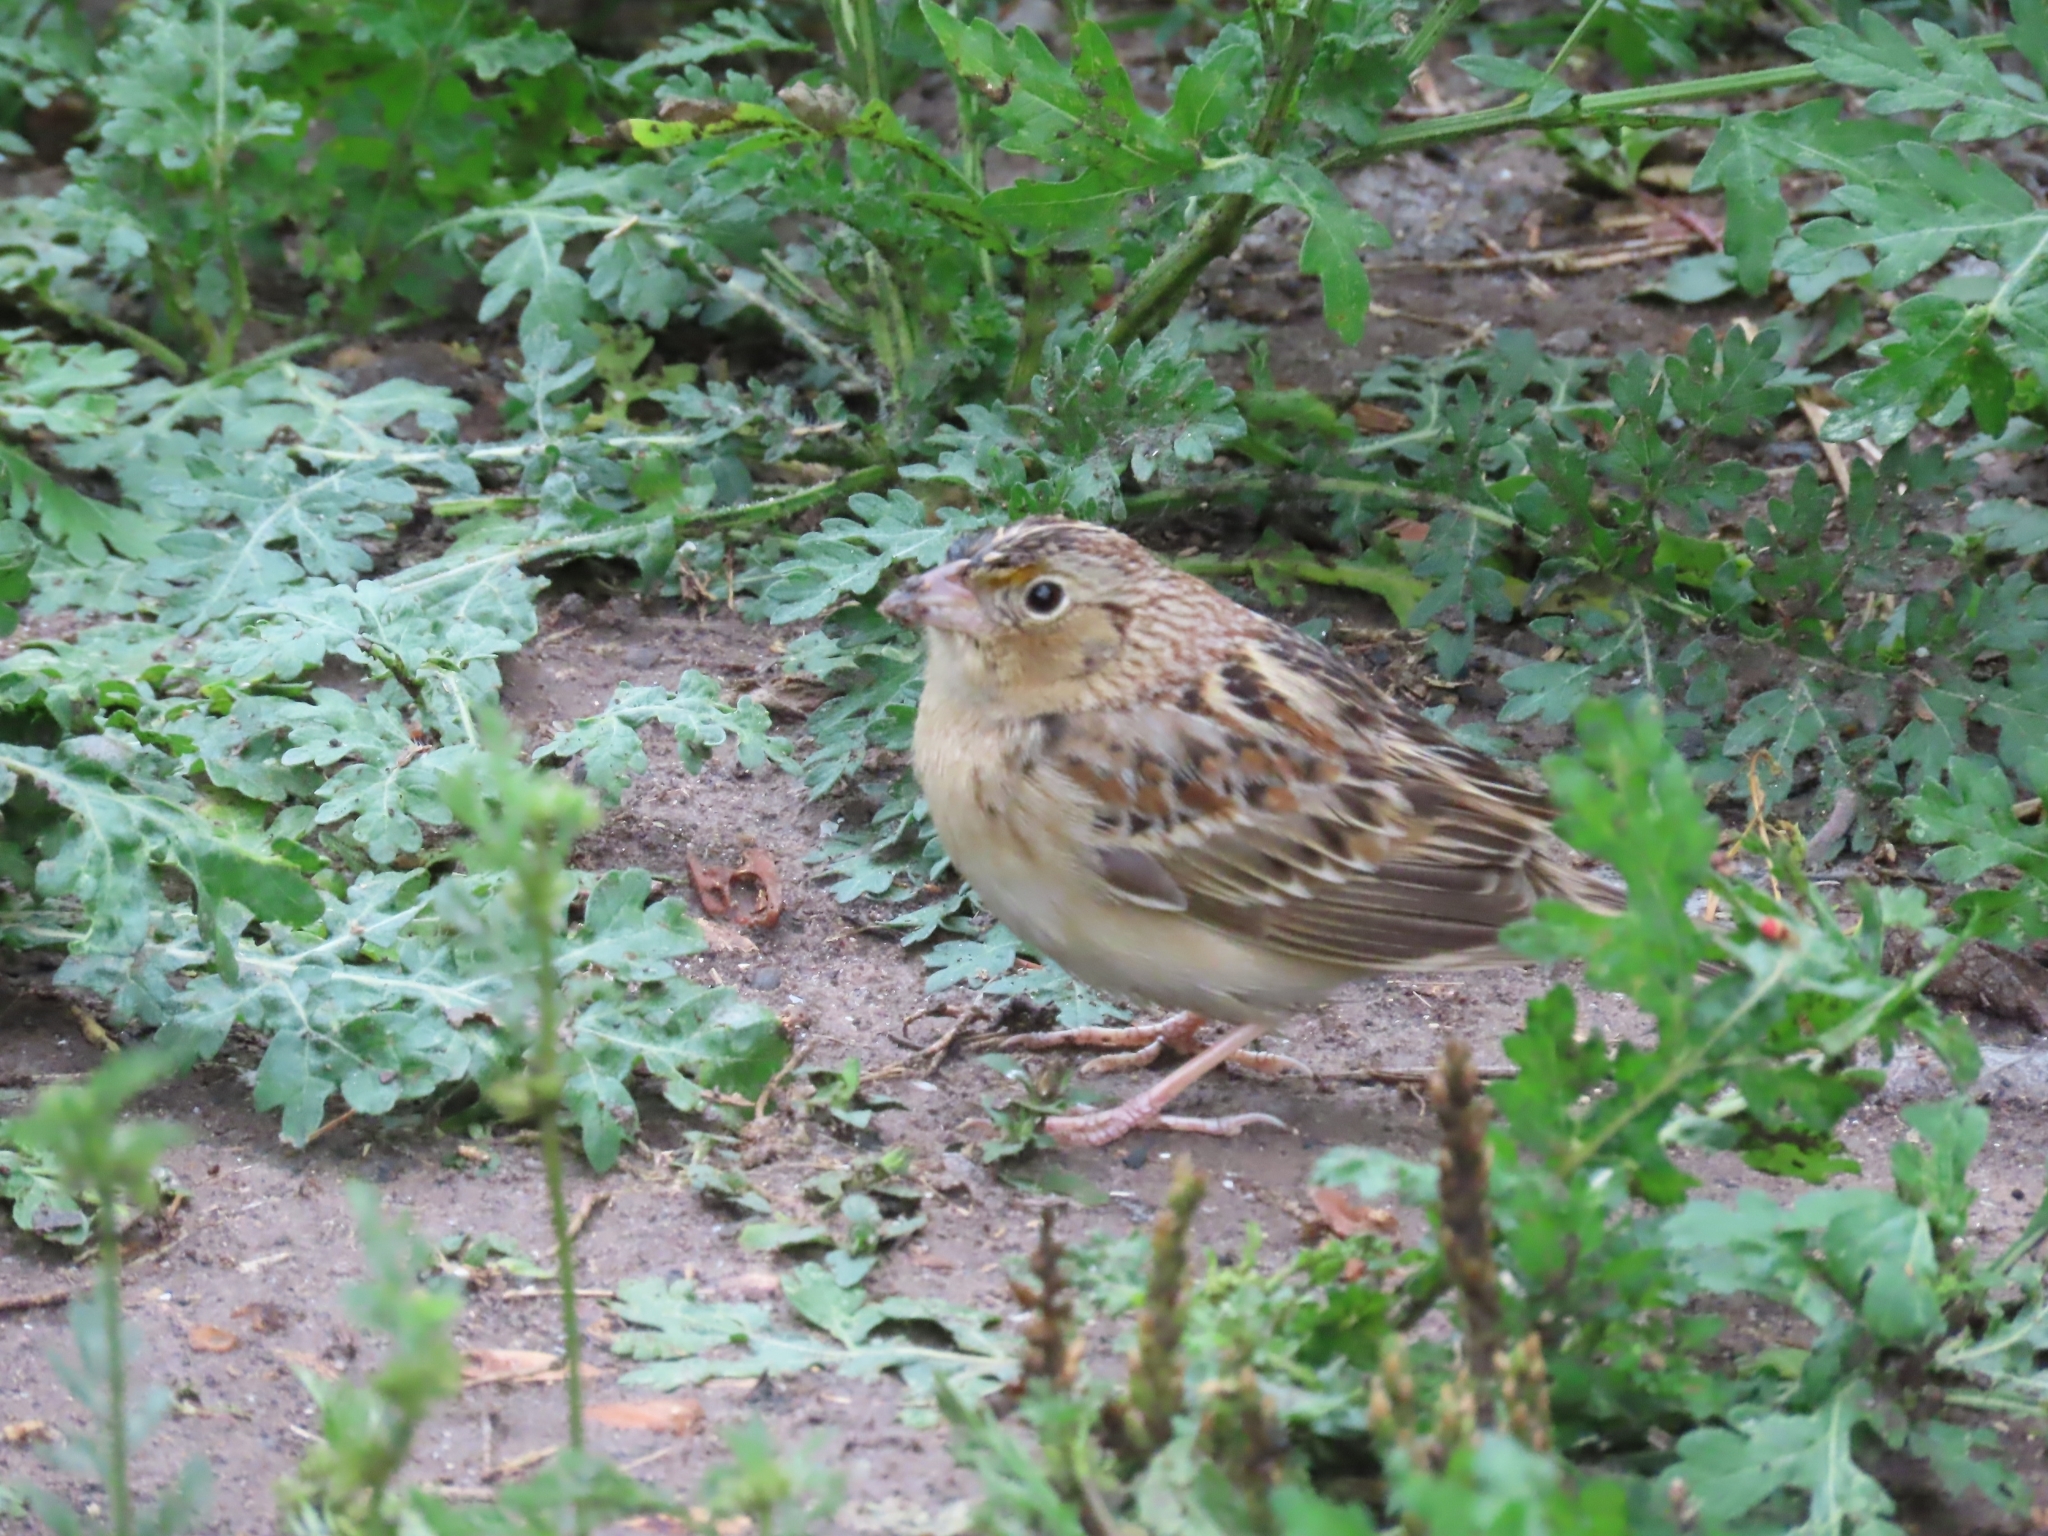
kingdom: Animalia
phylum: Chordata
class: Aves
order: Passeriformes
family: Passerellidae
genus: Ammodramus
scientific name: Ammodramus savannarum
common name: Grasshopper sparrow
